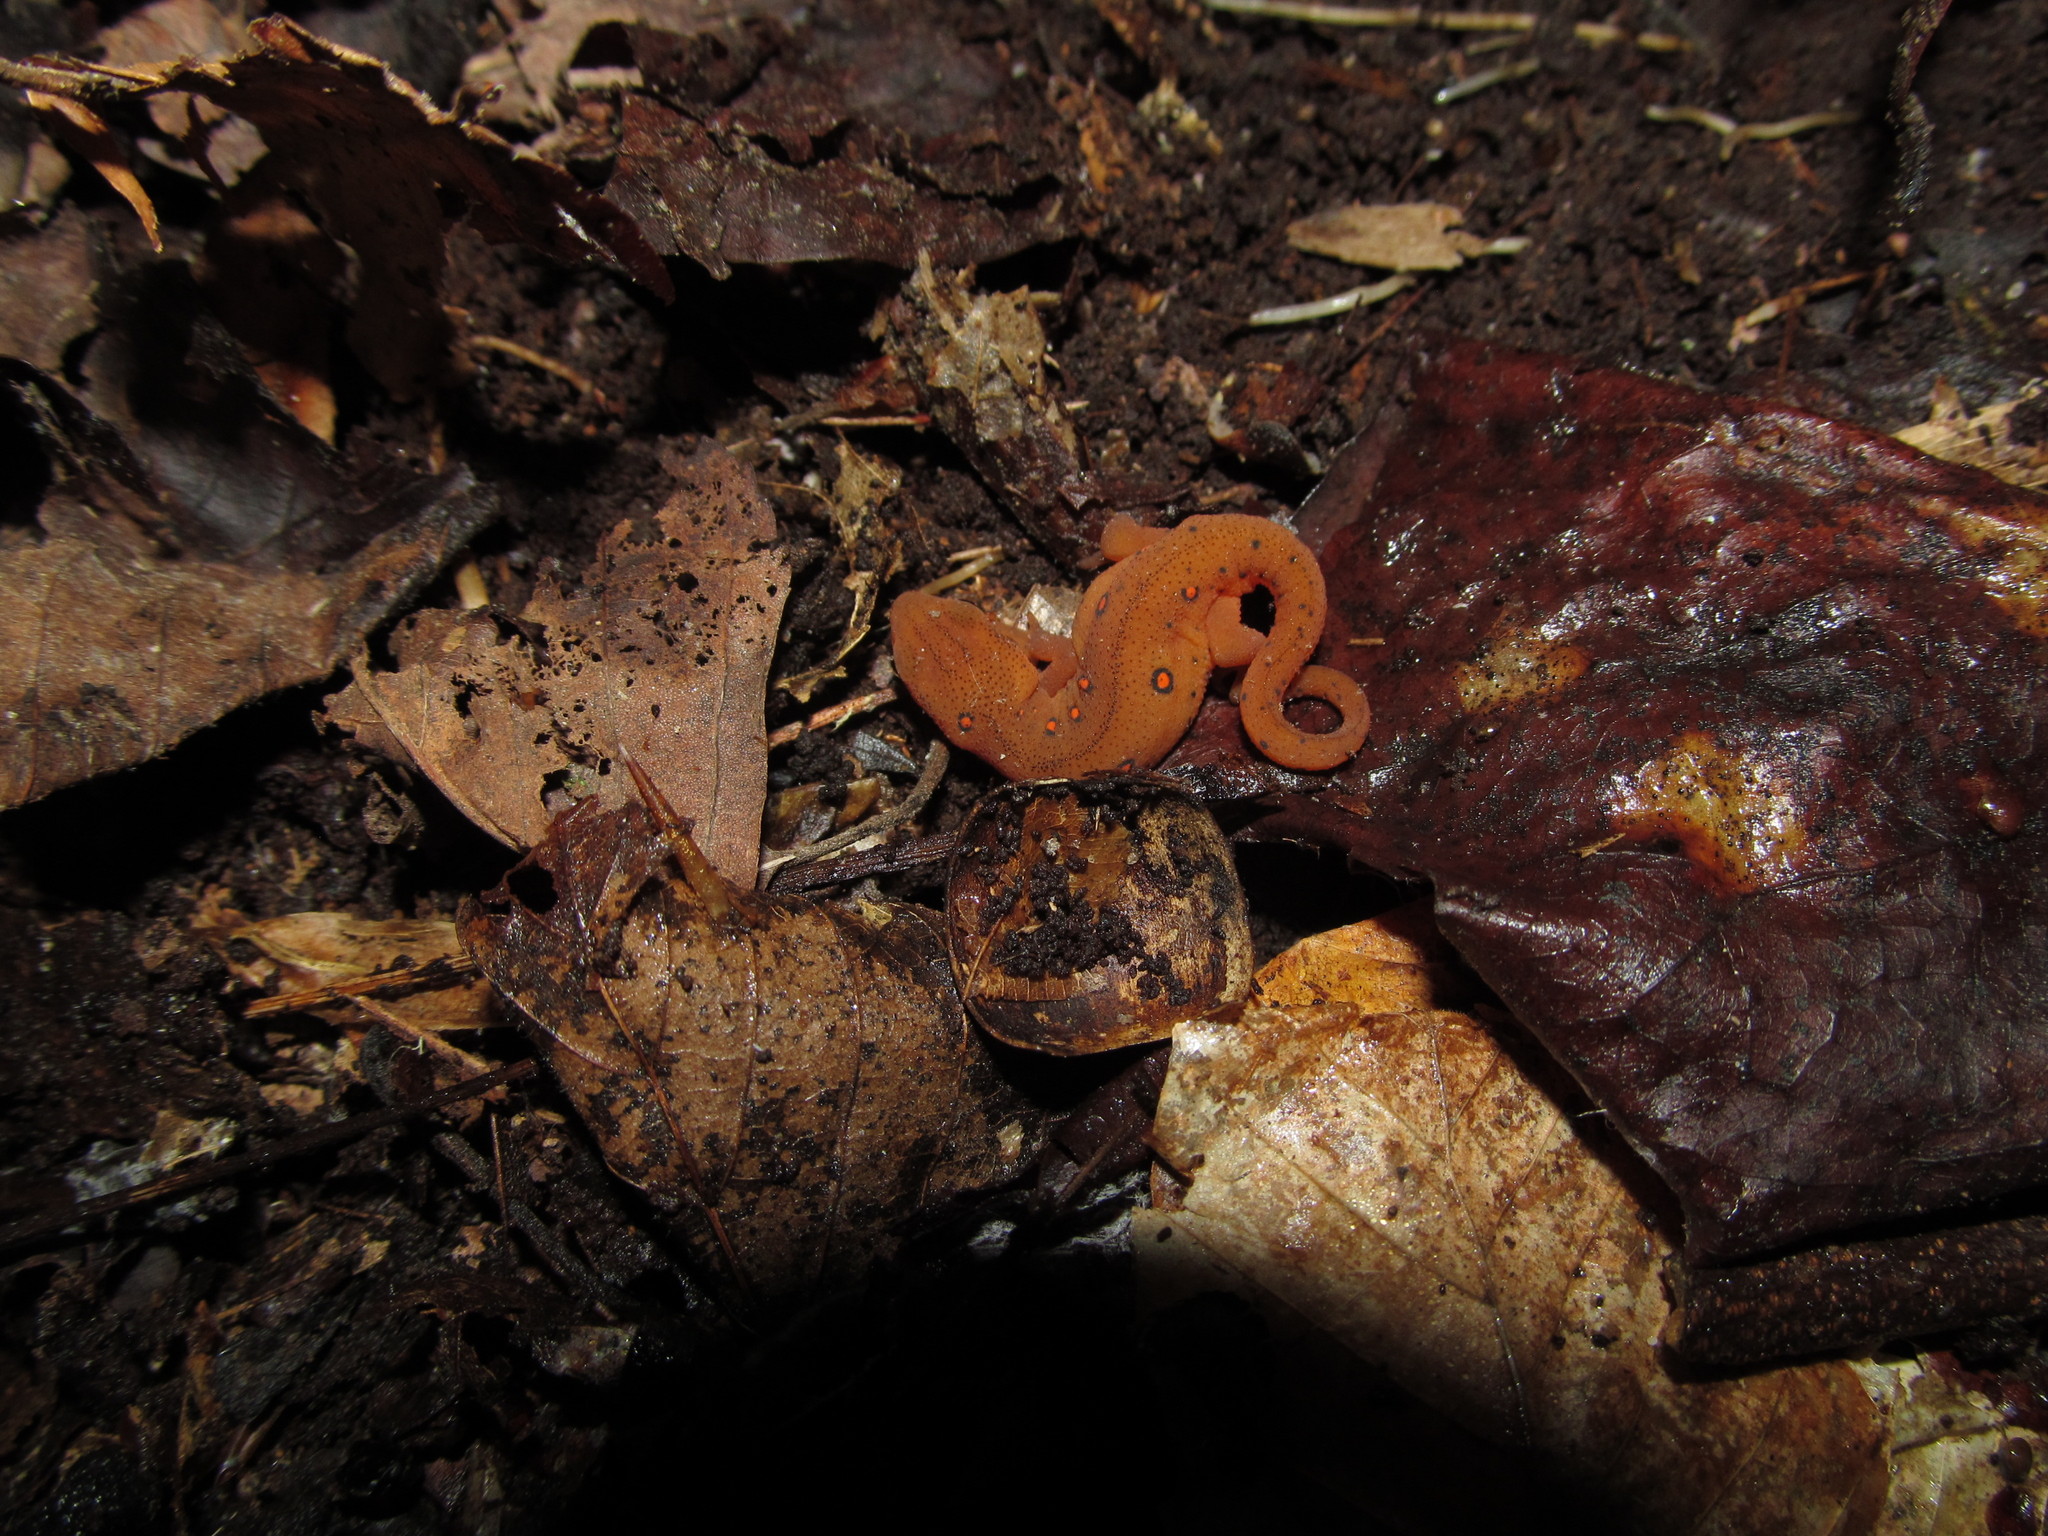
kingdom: Animalia
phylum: Chordata
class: Amphibia
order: Caudata
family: Salamandridae
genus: Notophthalmus
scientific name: Notophthalmus viridescens
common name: Eastern newt
